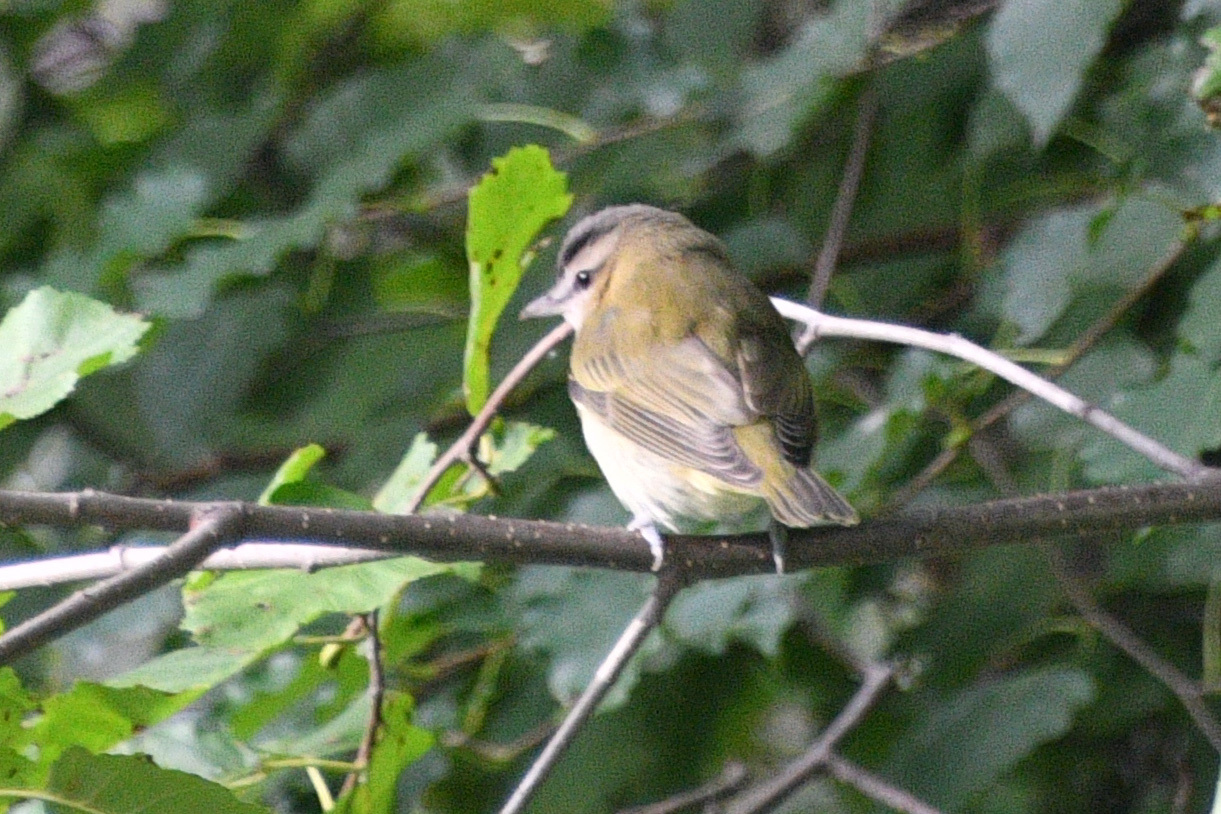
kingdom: Animalia
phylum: Chordata
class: Aves
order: Passeriformes
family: Vireonidae
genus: Vireo
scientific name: Vireo olivaceus
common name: Red-eyed vireo
